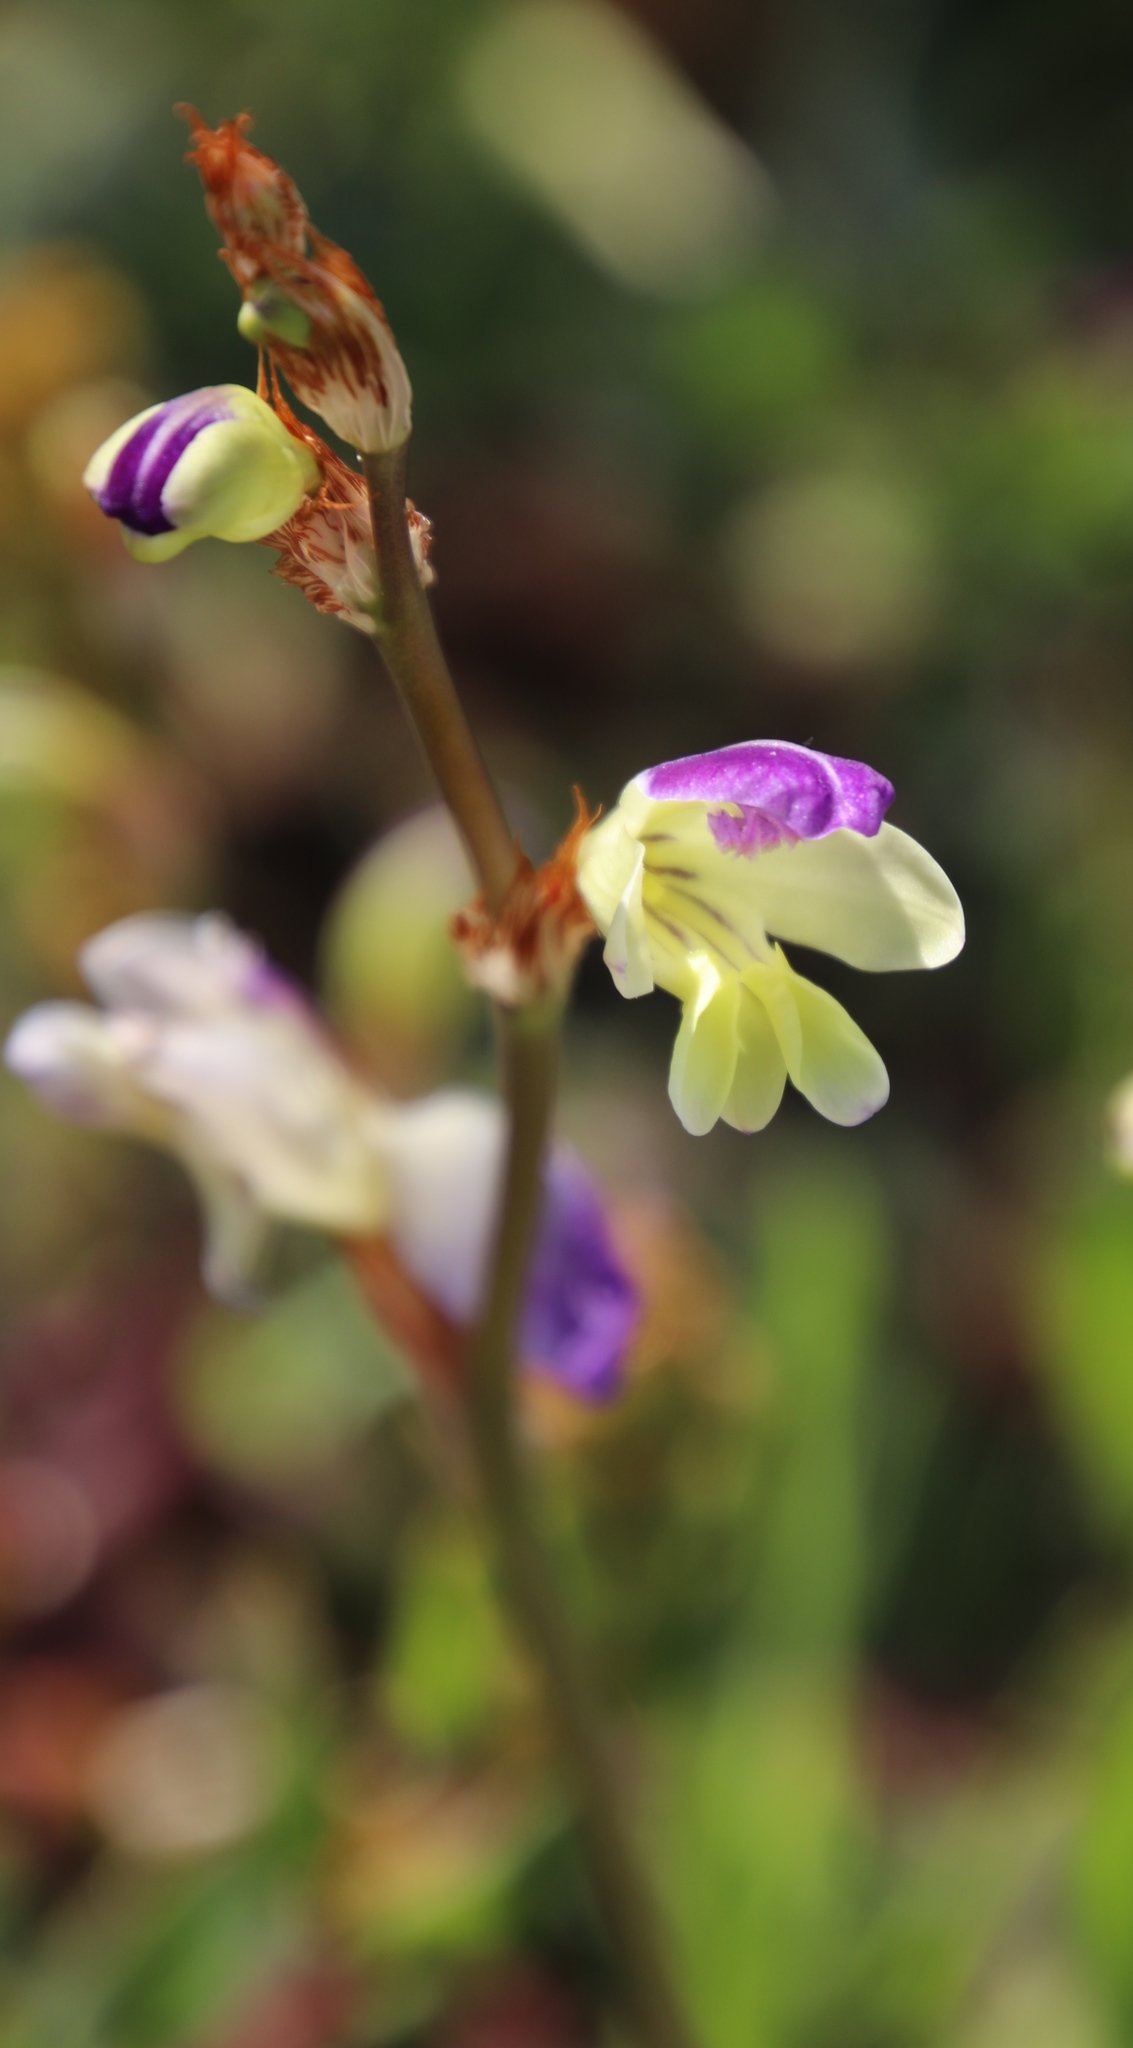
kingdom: Plantae
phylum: Tracheophyta
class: Liliopsida
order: Asparagales
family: Iridaceae
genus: Sparaxis
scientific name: Sparaxis villosa
